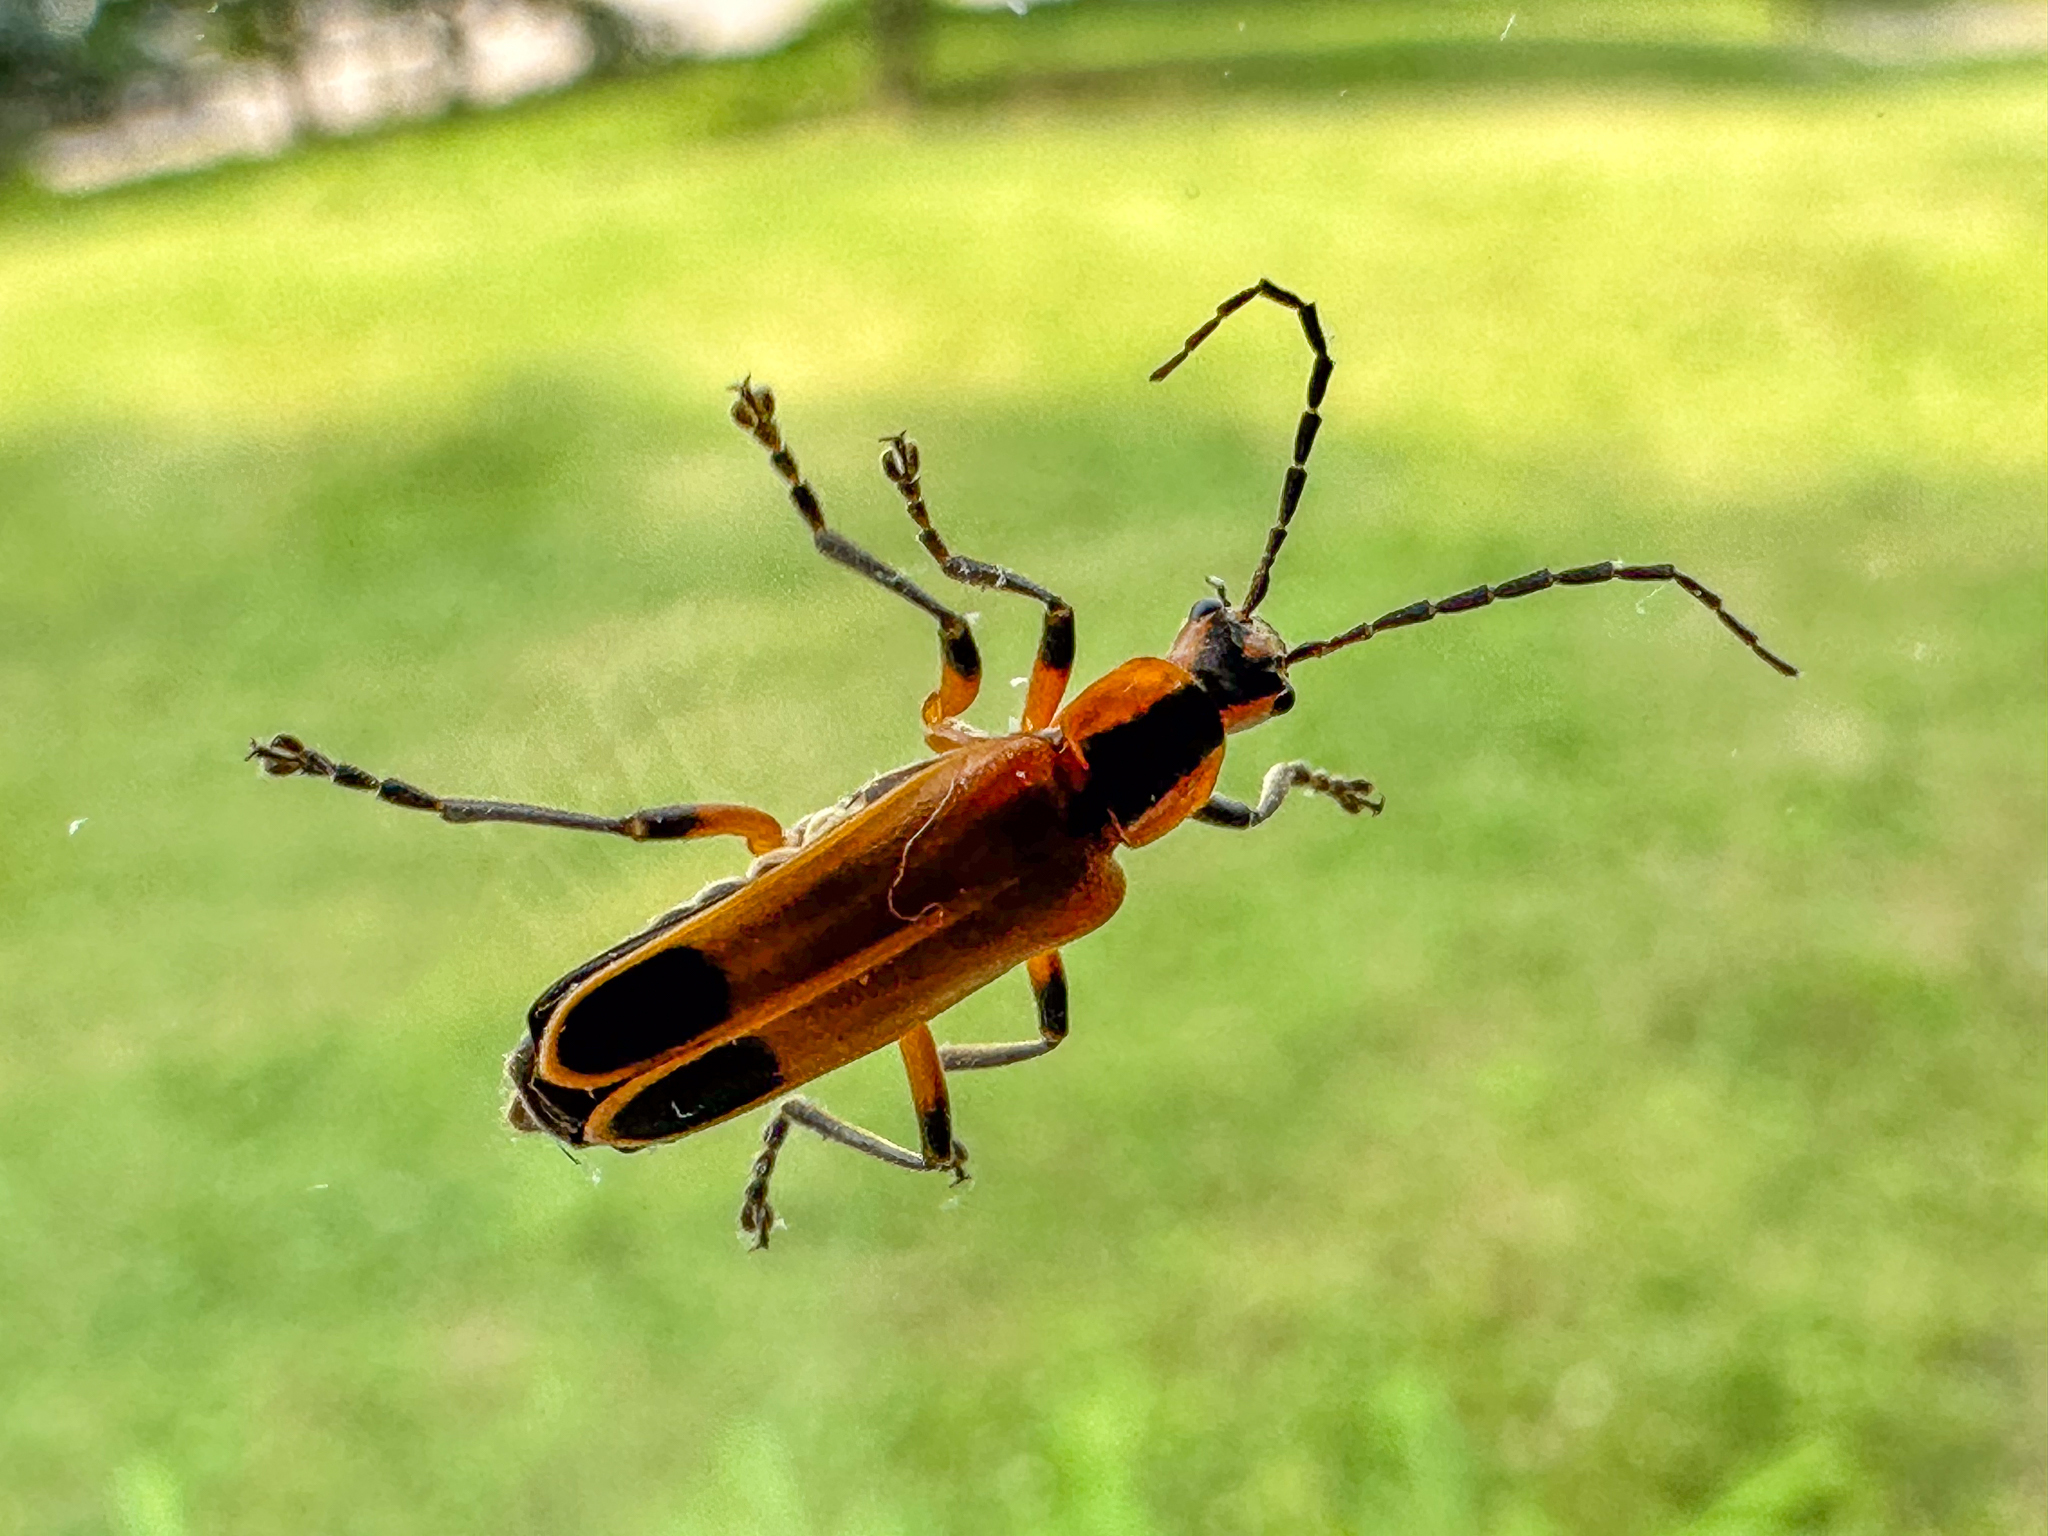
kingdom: Animalia
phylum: Arthropoda
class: Insecta
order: Coleoptera
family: Cantharidae
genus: Chauliognathus
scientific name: Chauliognathus marginatus
